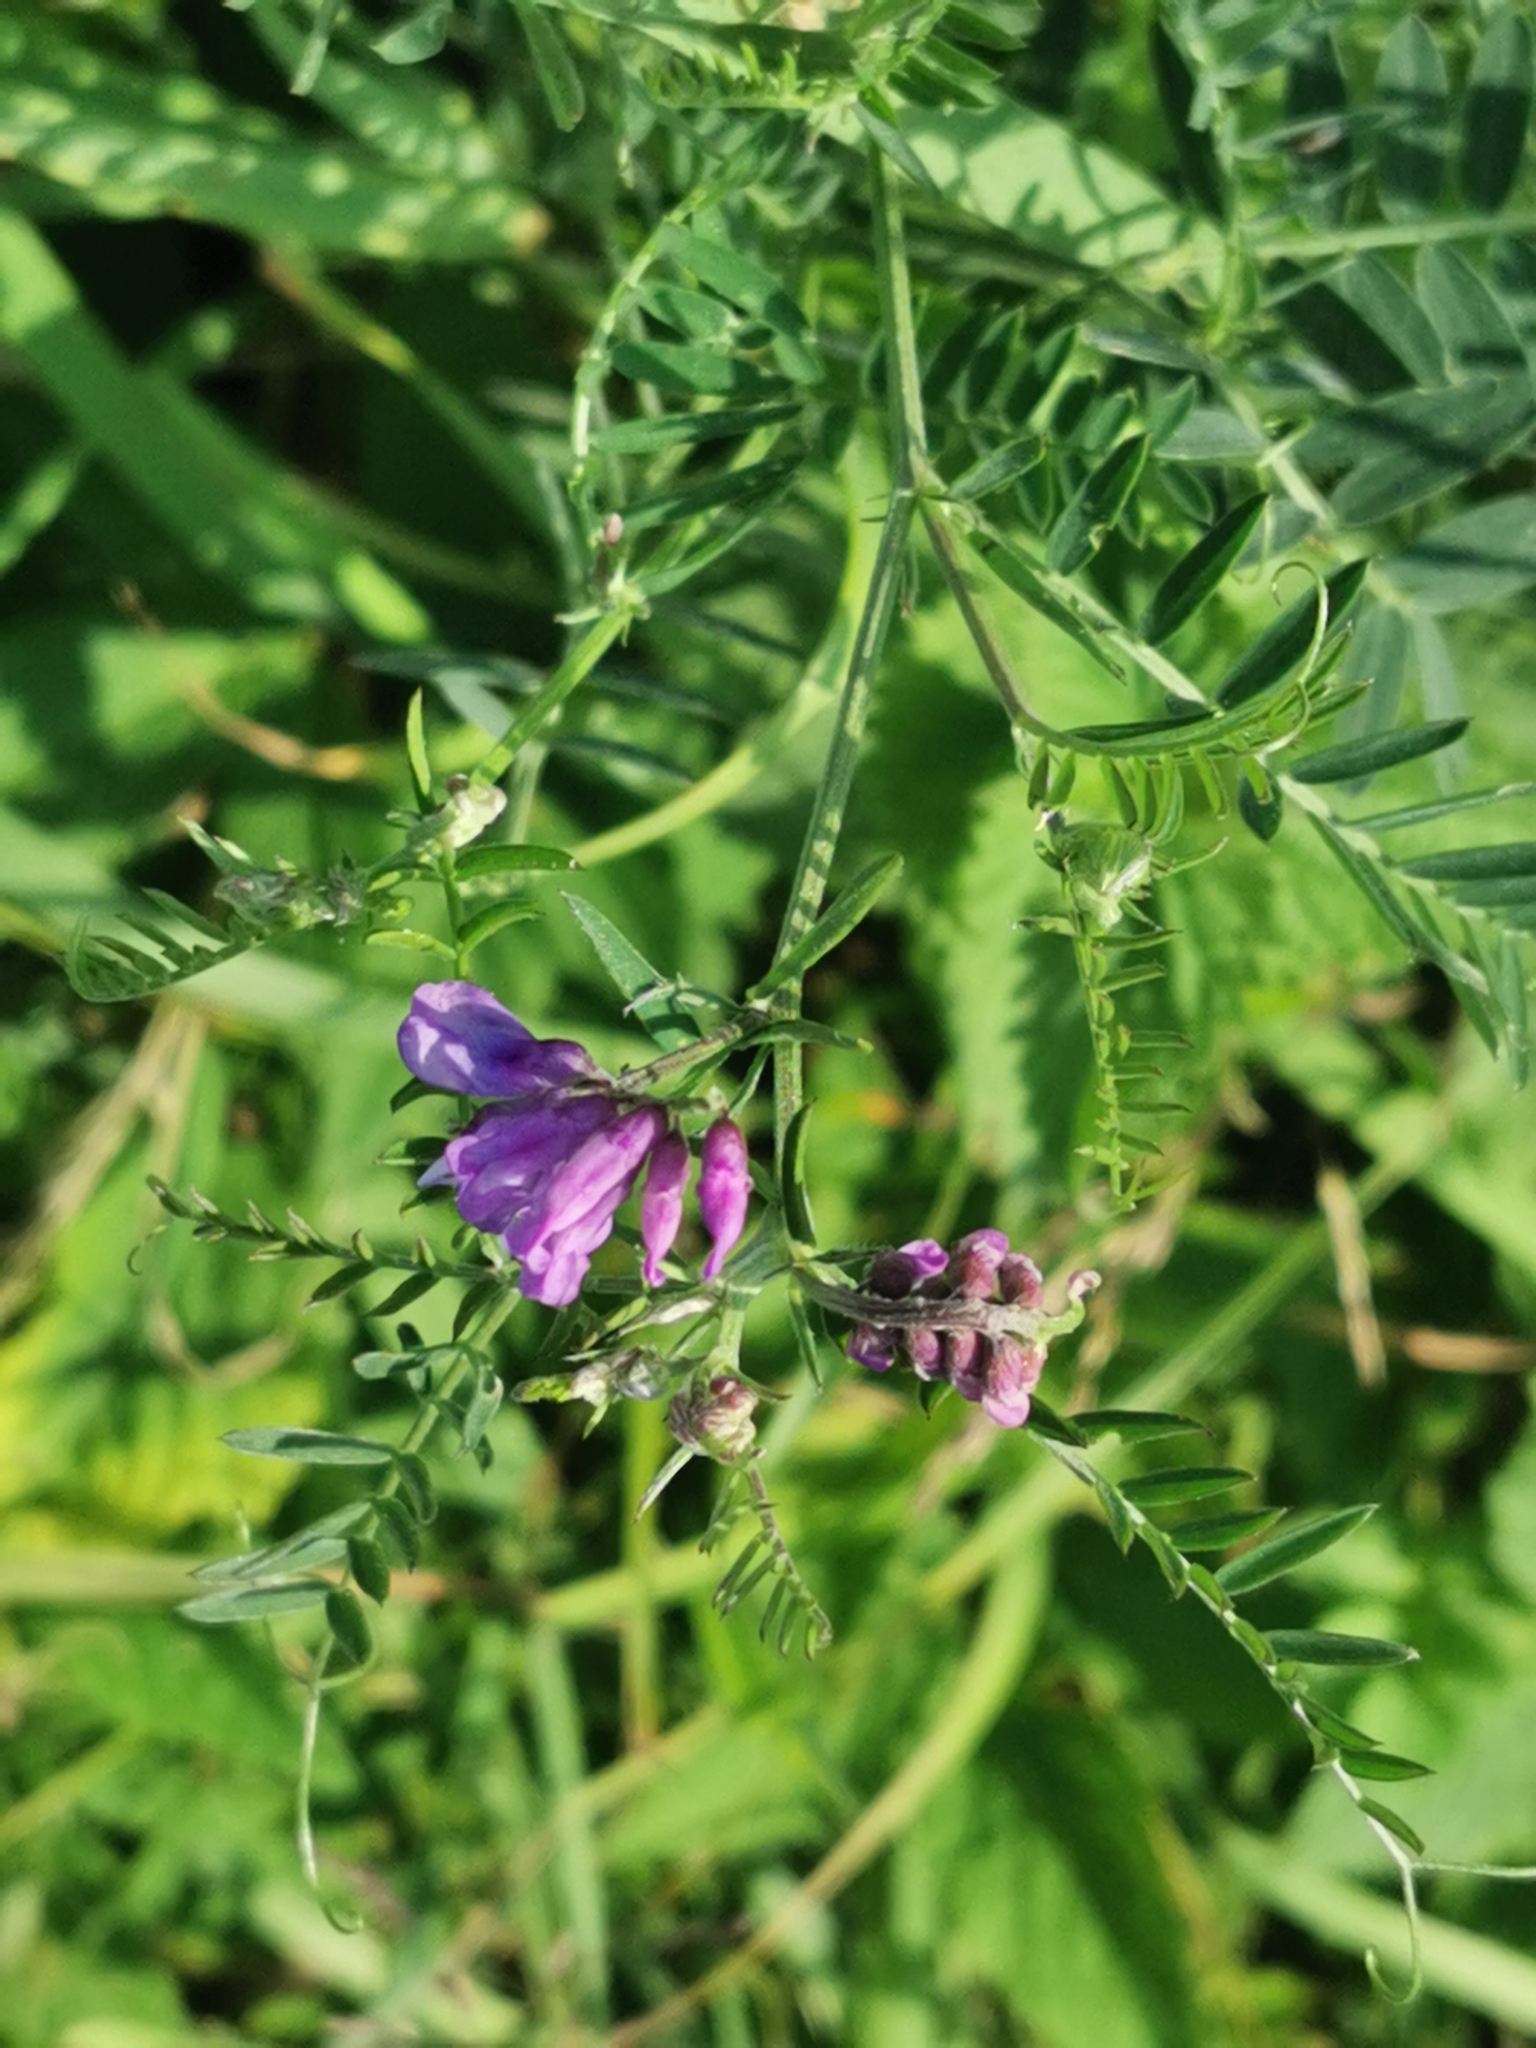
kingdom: Plantae
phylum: Tracheophyta
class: Magnoliopsida
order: Fabales
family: Fabaceae
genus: Vicia
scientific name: Vicia cracca
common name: Bird vetch
